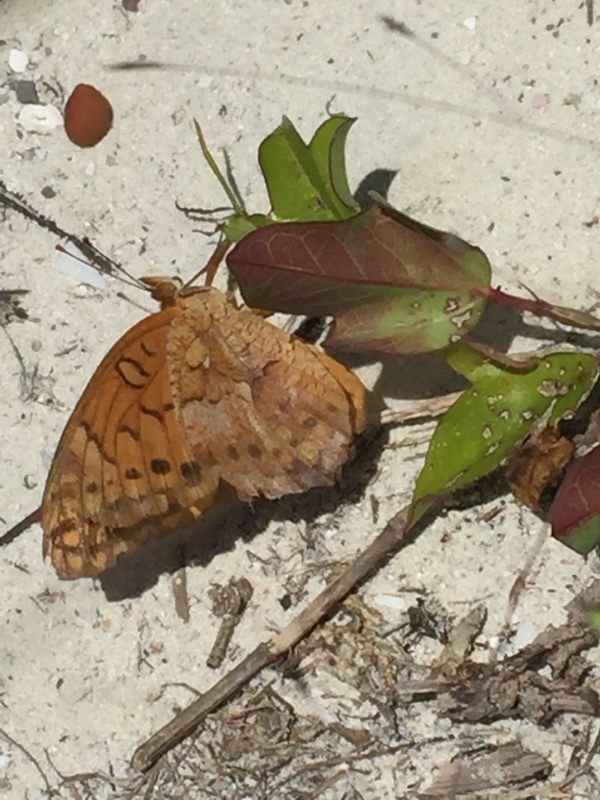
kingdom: Animalia
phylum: Arthropoda
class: Insecta
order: Lepidoptera
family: Nymphalidae
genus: Euptoieta
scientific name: Euptoieta hegesia
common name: Mexican fritillary
